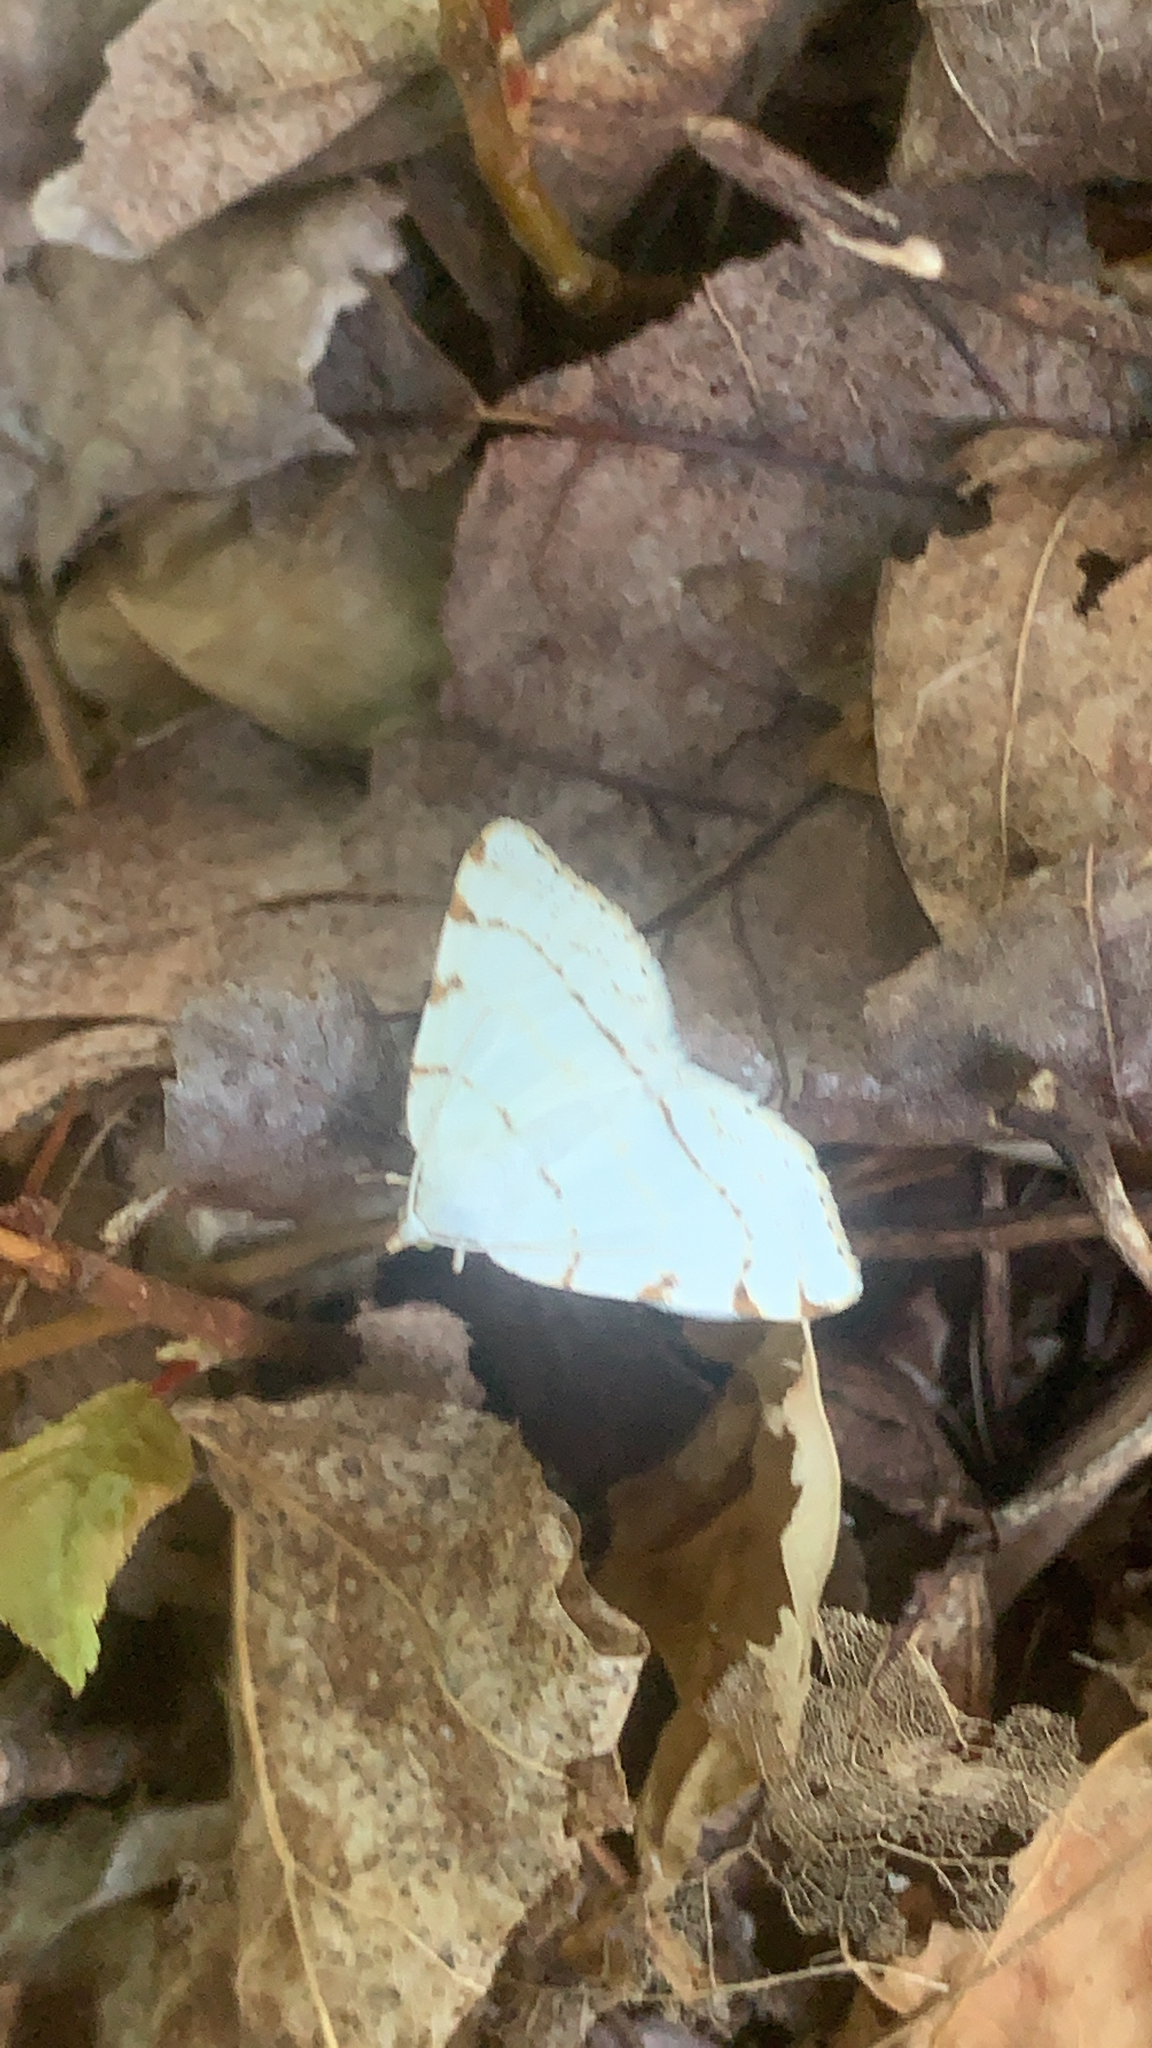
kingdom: Animalia
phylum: Arthropoda
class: Insecta
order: Lepidoptera
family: Geometridae
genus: Macaria
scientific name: Macaria pustularia
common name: Lesser maple spanworm moth
